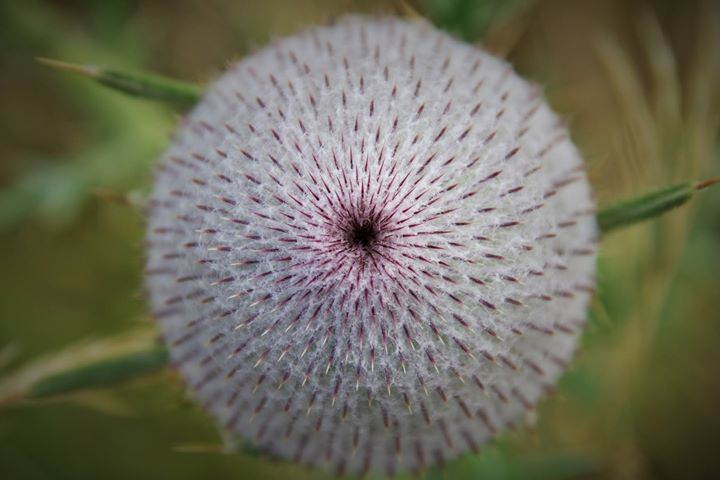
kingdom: Plantae
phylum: Tracheophyta
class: Magnoliopsida
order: Asterales
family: Asteraceae
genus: Lophiolepis
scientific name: Lophiolepis eriophora
